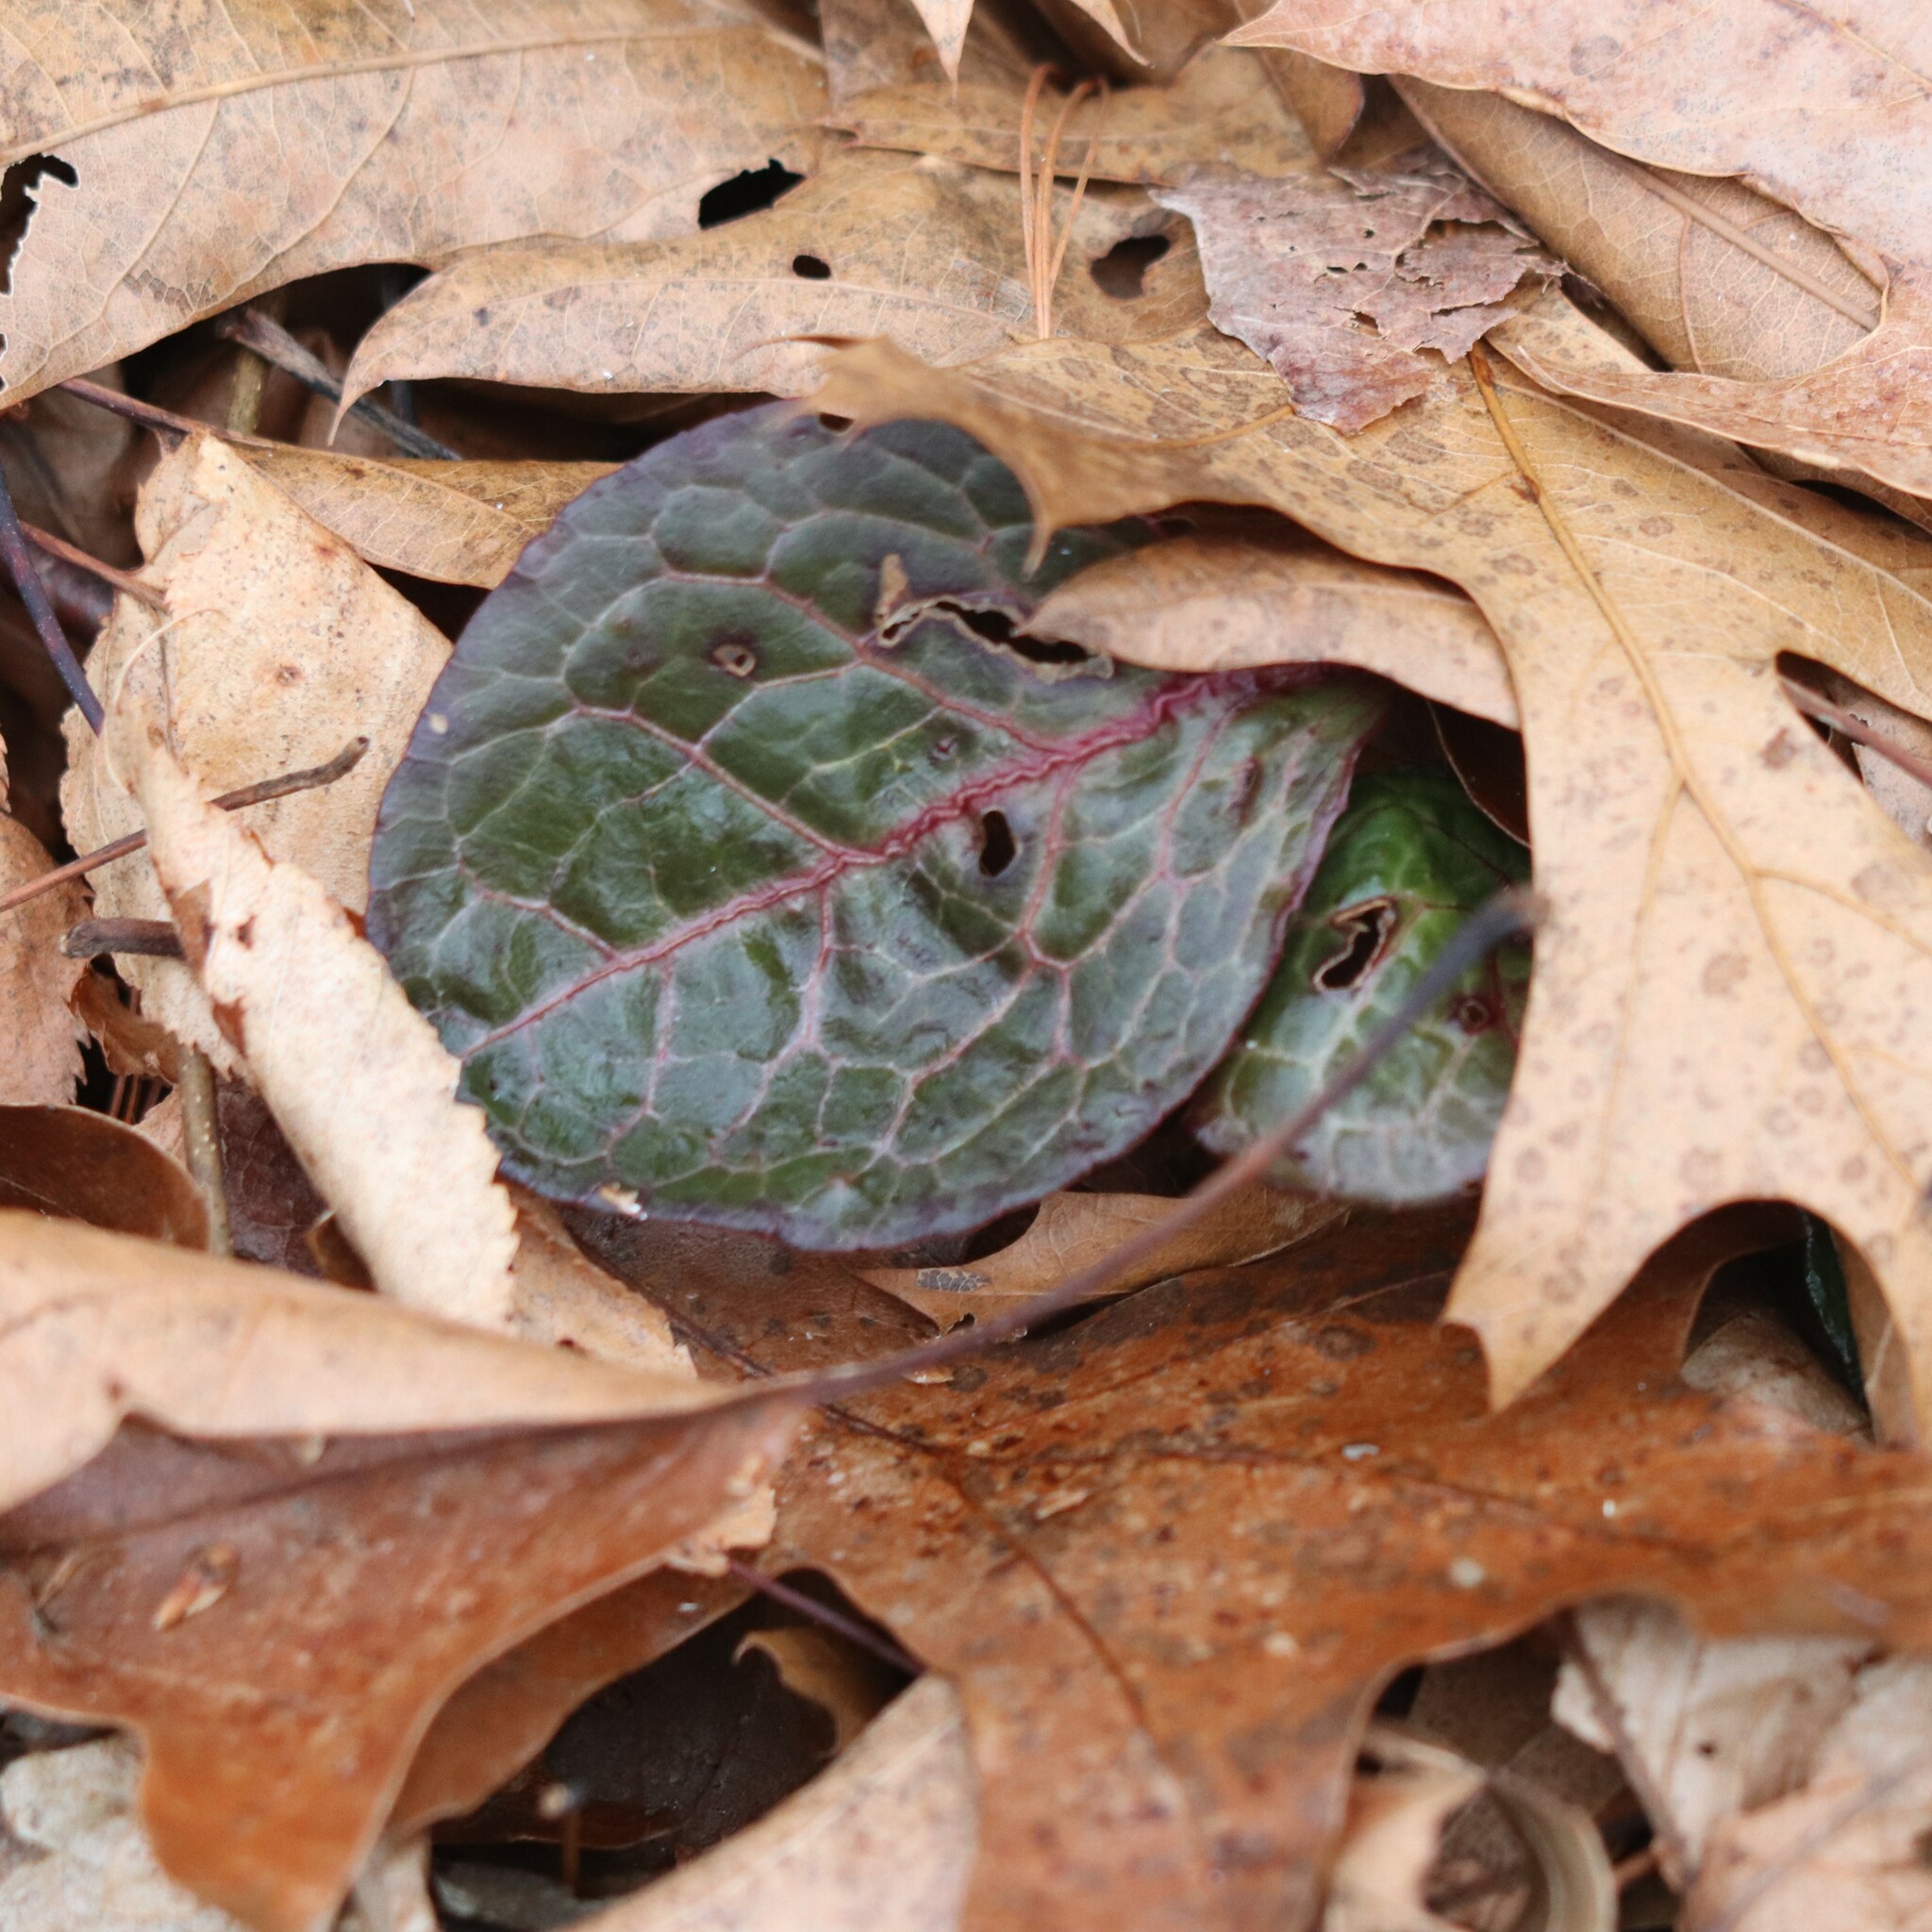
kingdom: Plantae
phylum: Tracheophyta
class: Magnoliopsida
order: Ericales
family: Ericaceae
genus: Pyrola
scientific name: Pyrola americana
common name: American wintergreen
